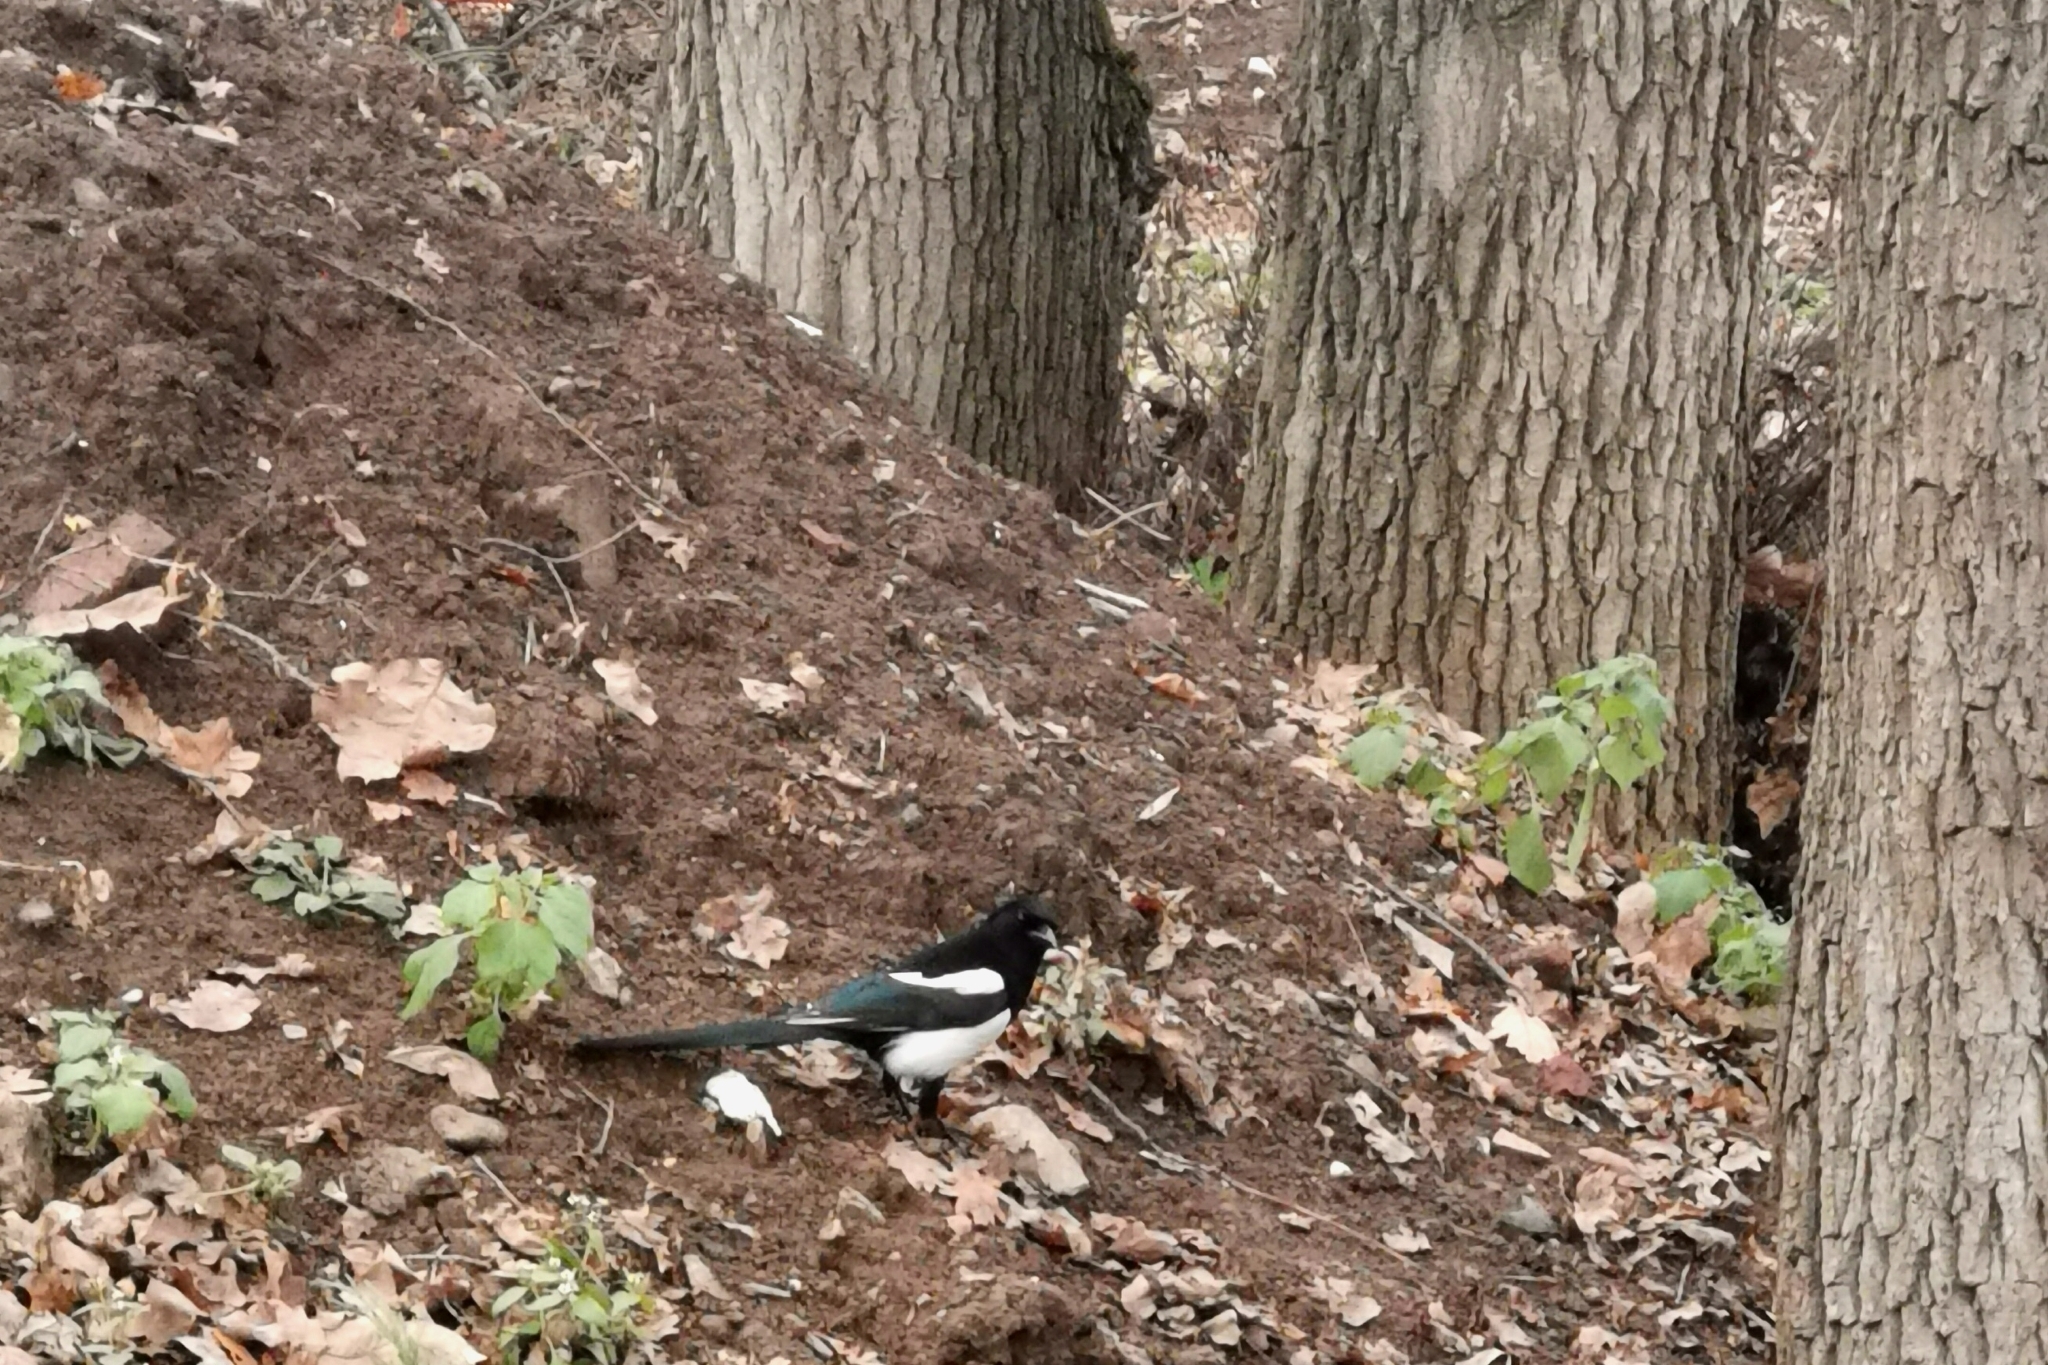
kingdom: Animalia
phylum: Chordata
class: Aves
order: Passeriformes
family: Corvidae
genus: Pica
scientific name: Pica pica
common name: Eurasian magpie
